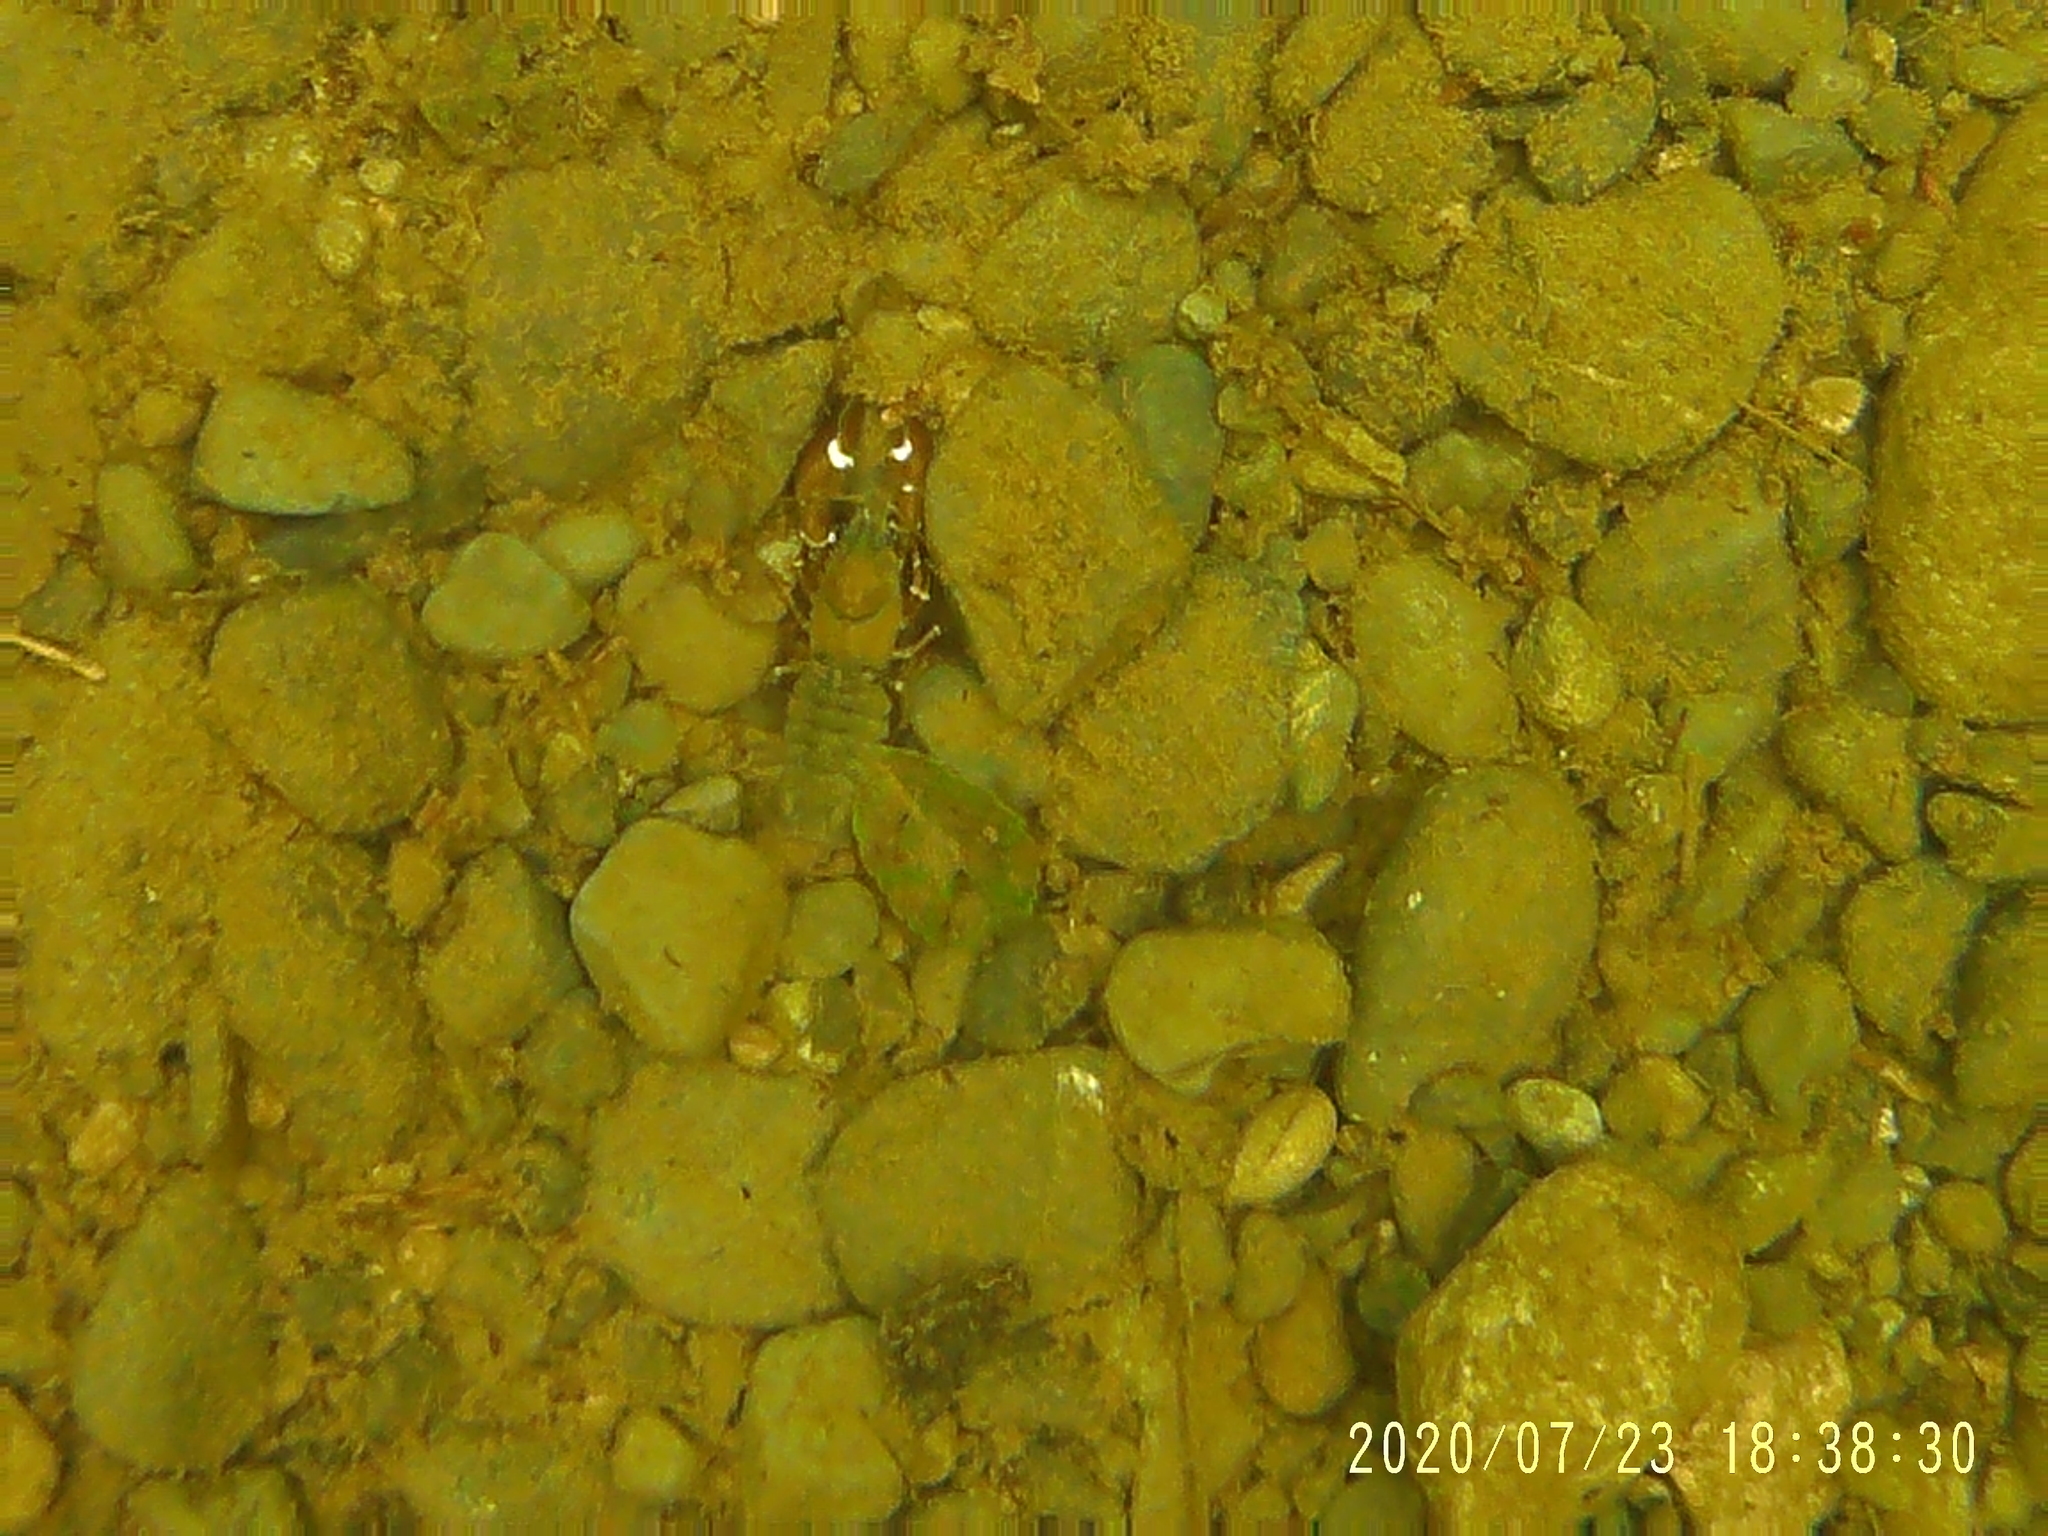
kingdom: Animalia
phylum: Arthropoda
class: Malacostraca
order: Decapoda
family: Astacidae
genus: Pacifastacus
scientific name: Pacifastacus leniusculus
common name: Signal crayfish
